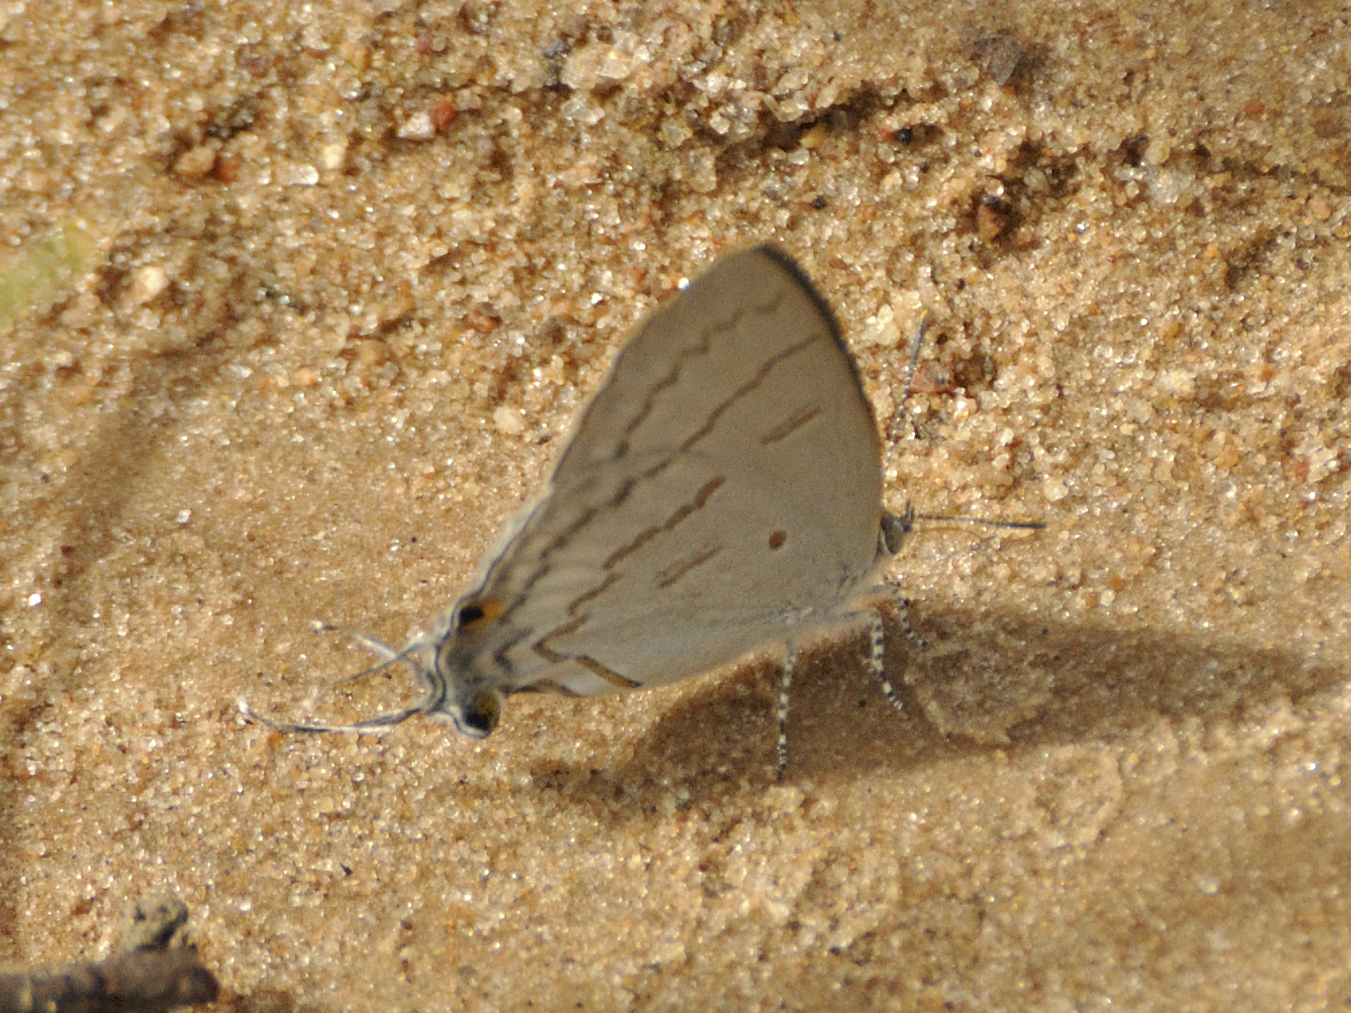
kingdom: Animalia
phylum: Arthropoda
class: Insecta
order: Lepidoptera
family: Lycaenidae
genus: Hypolycaena
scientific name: Hypolycaena philippus
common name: Common hairstreak
